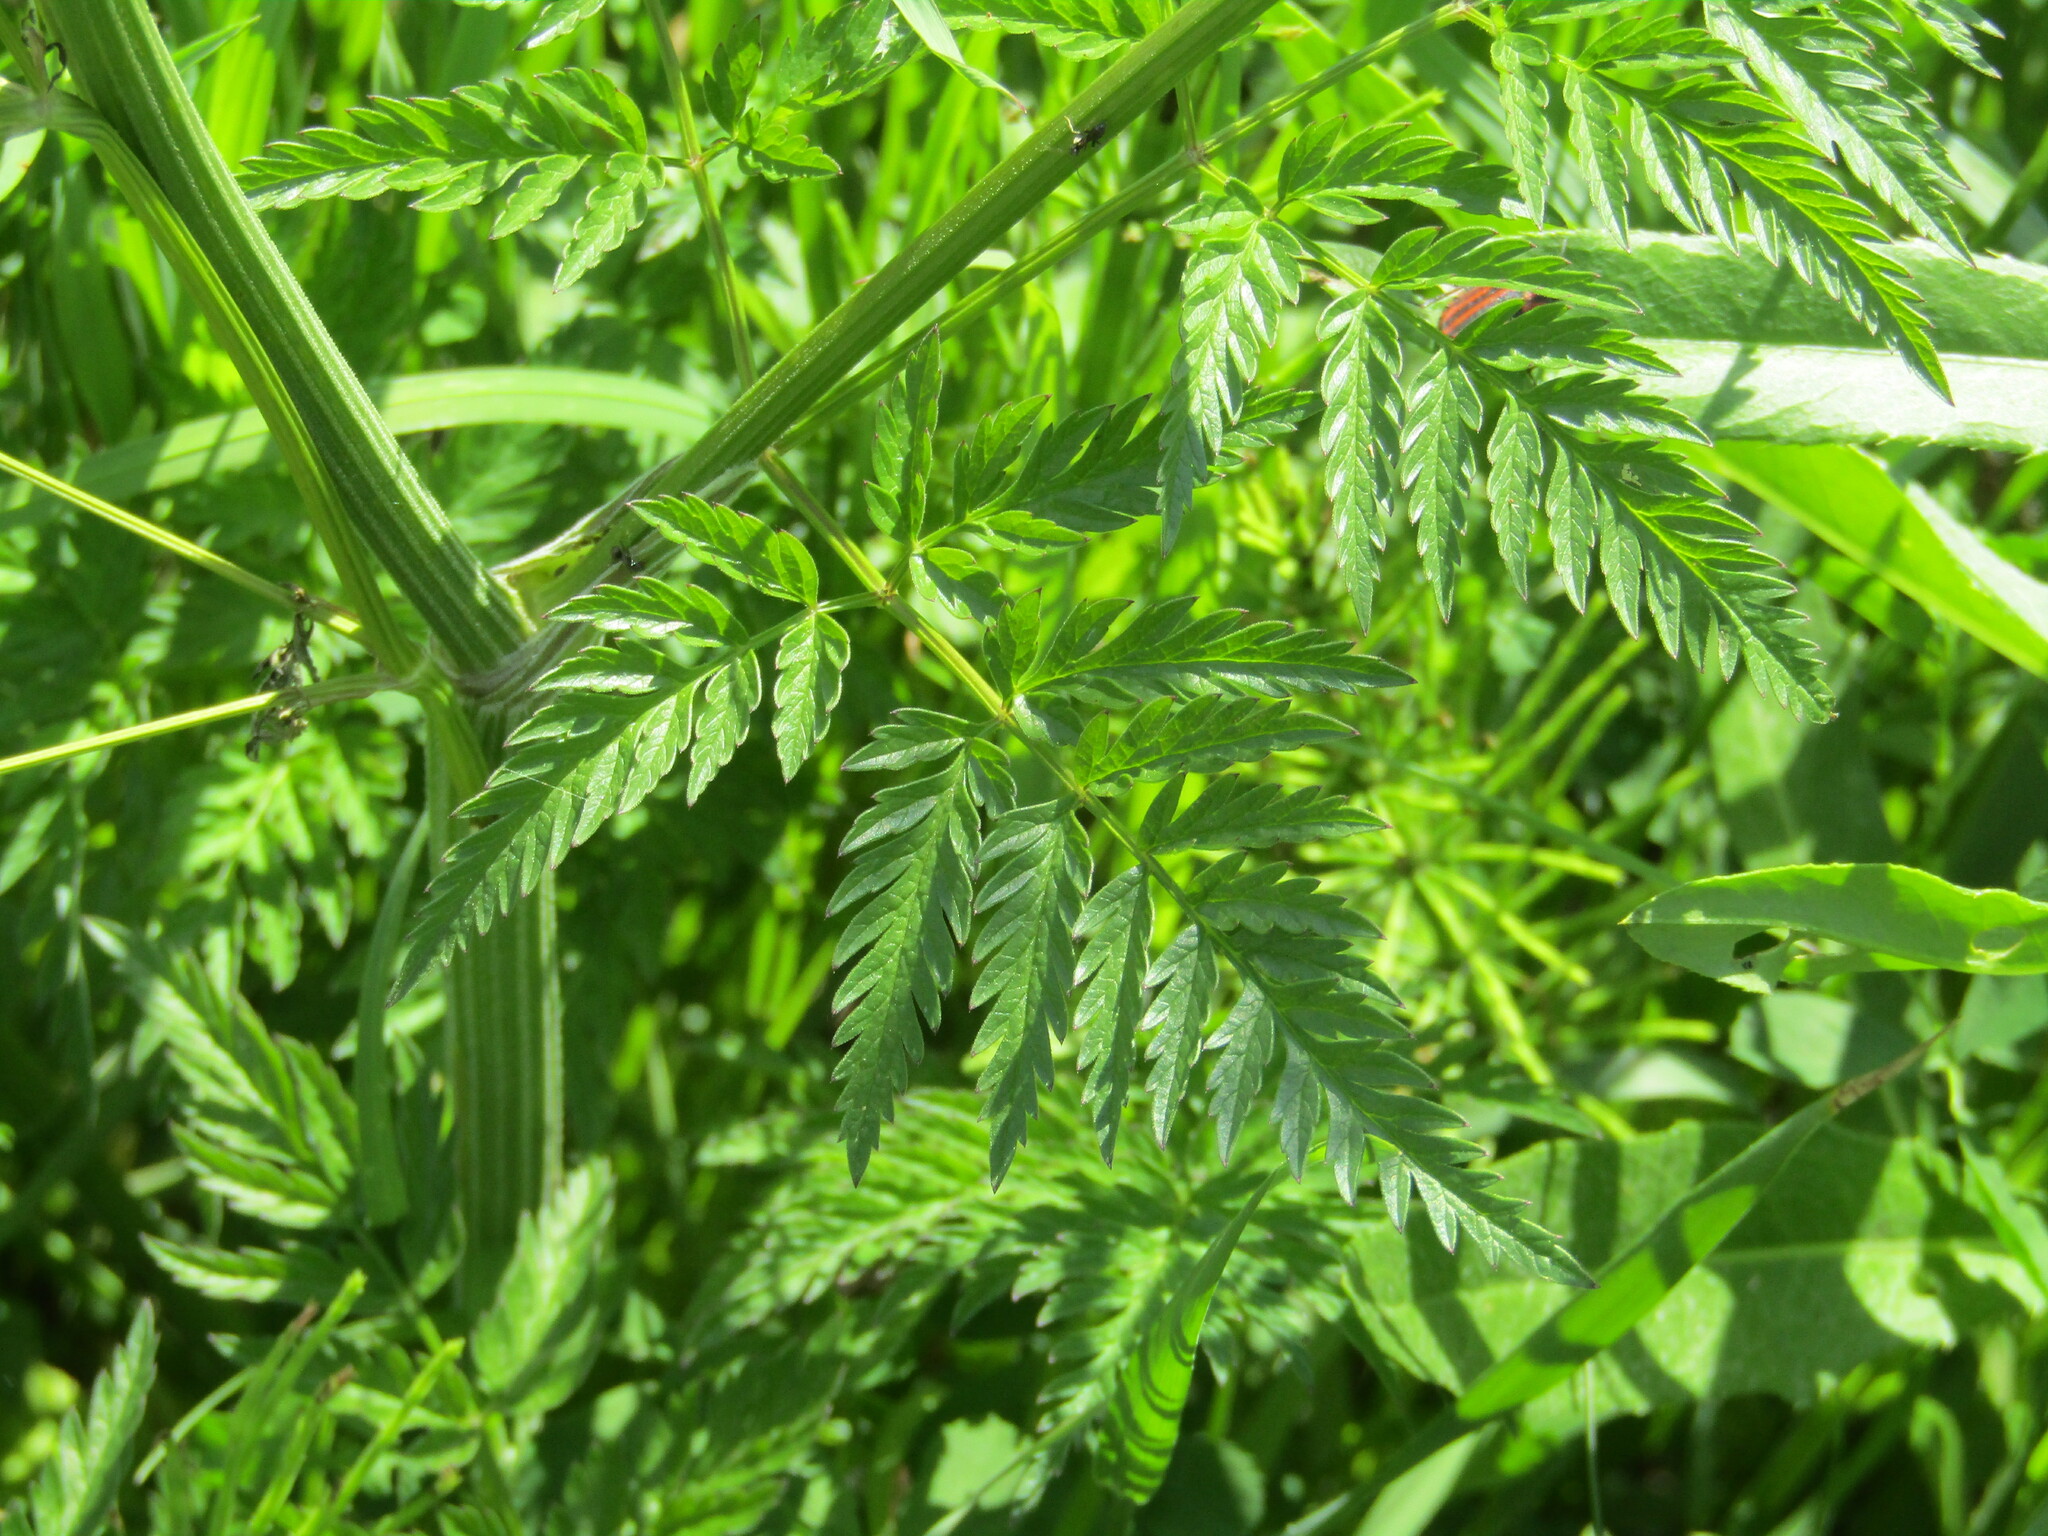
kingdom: Plantae
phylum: Tracheophyta
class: Magnoliopsida
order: Apiales
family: Apiaceae
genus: Anthriscus
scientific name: Anthriscus sylvestris
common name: Cow parsley
